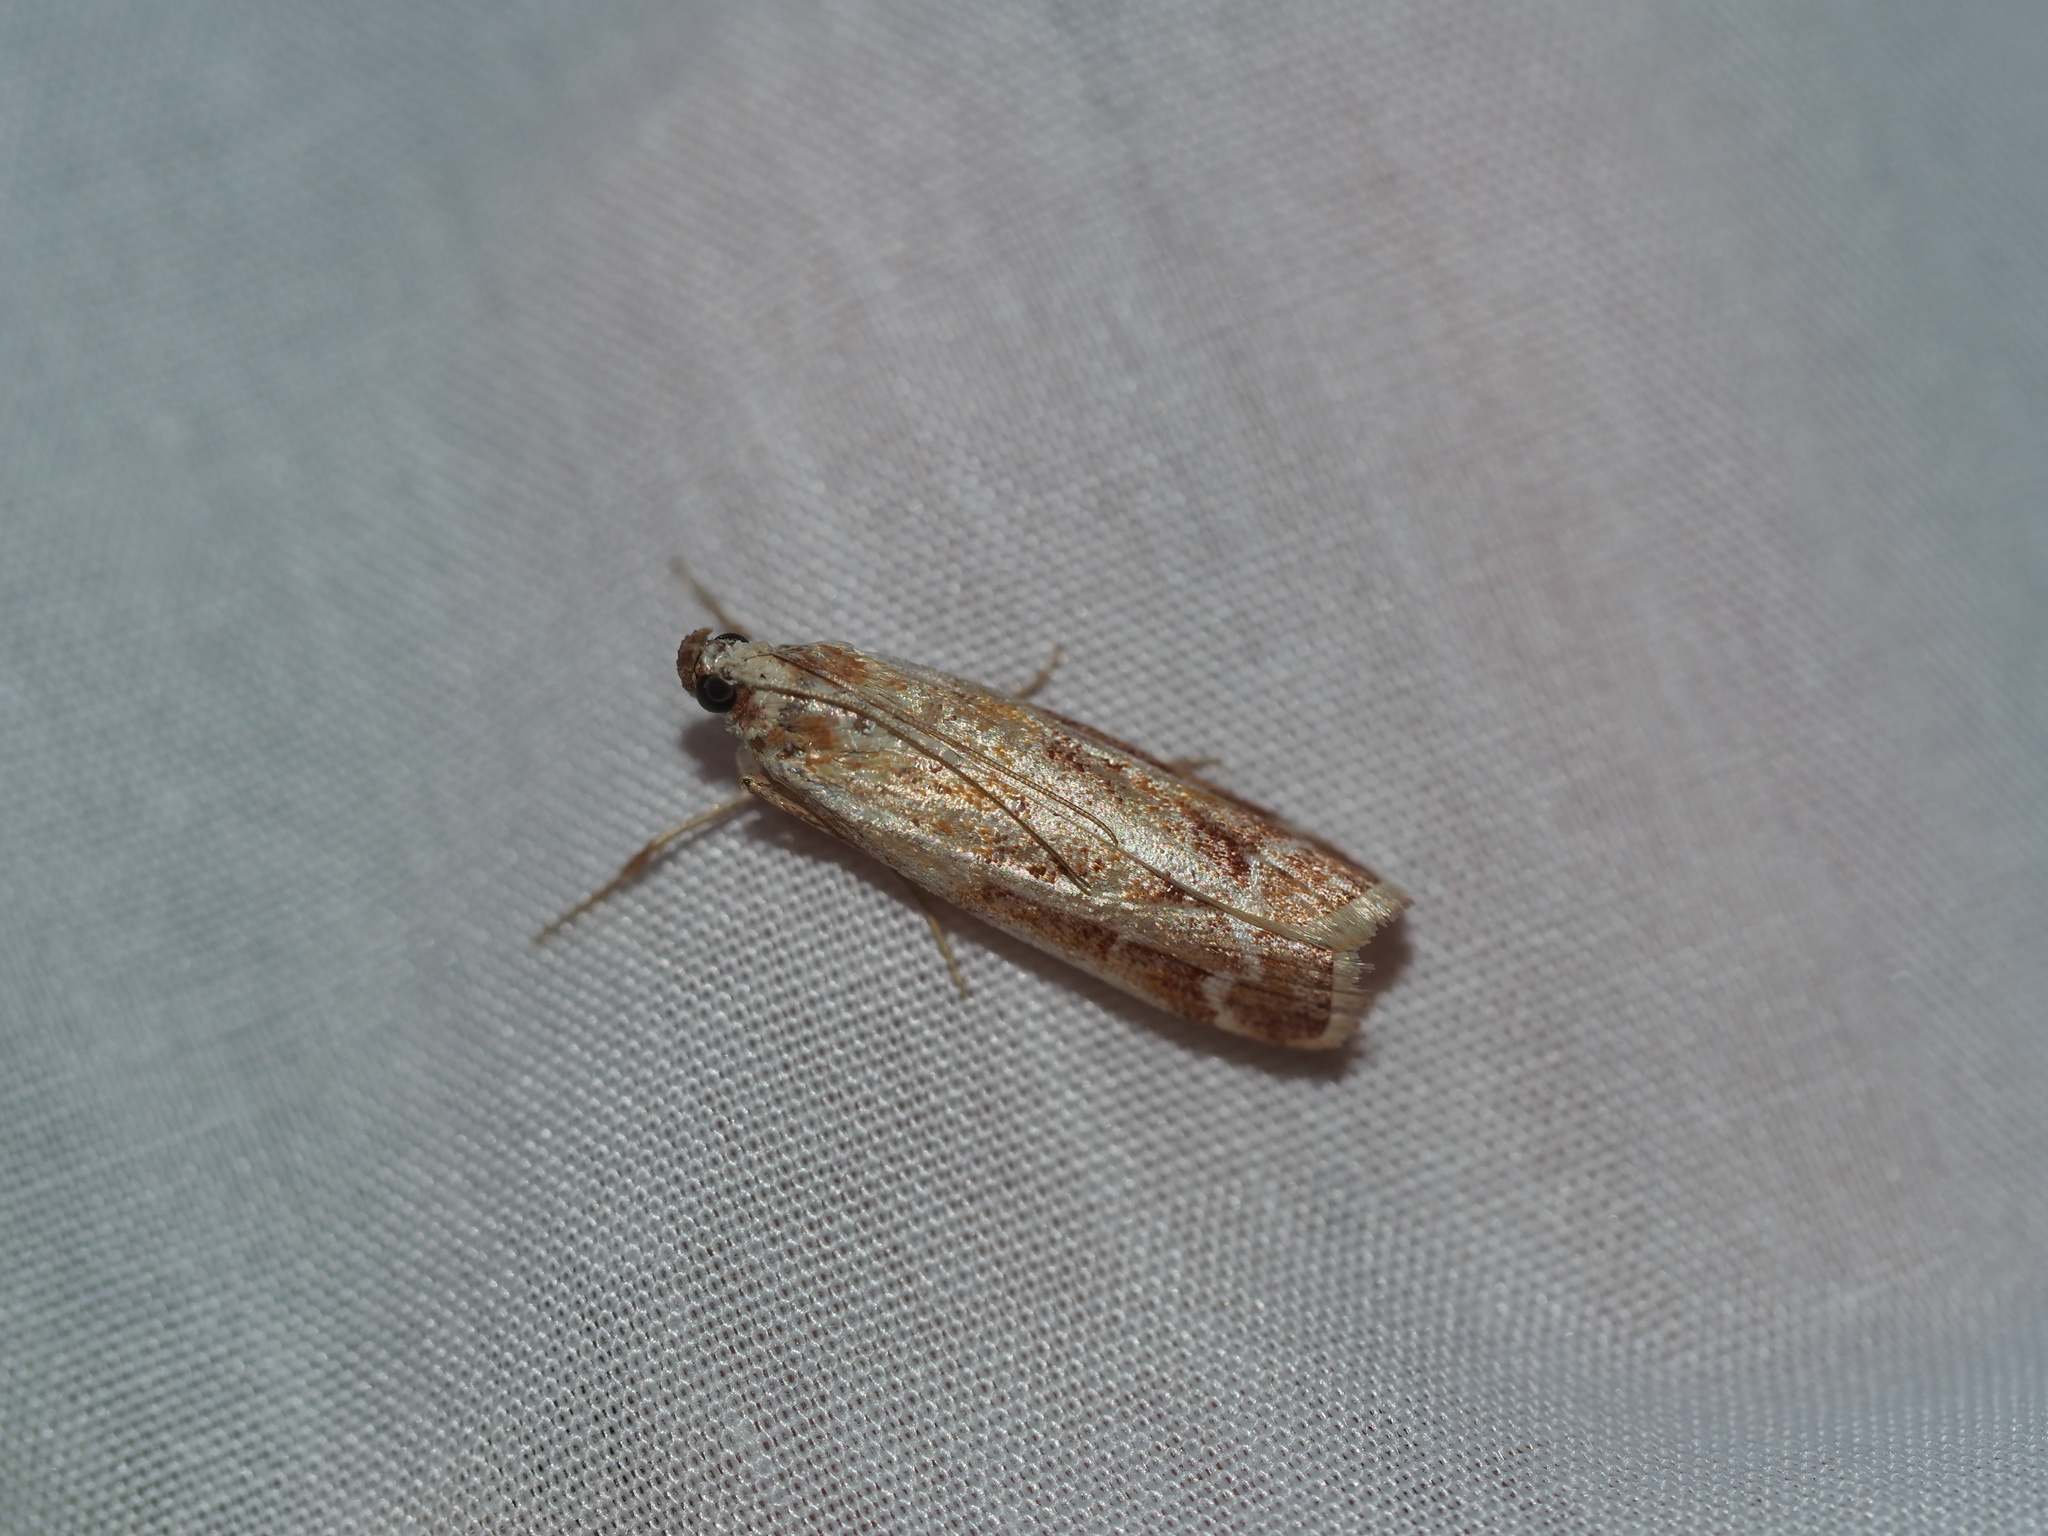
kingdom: Animalia
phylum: Arthropoda
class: Insecta
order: Lepidoptera
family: Pyralidae
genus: Dioryctria
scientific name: Dioryctria auranticella
